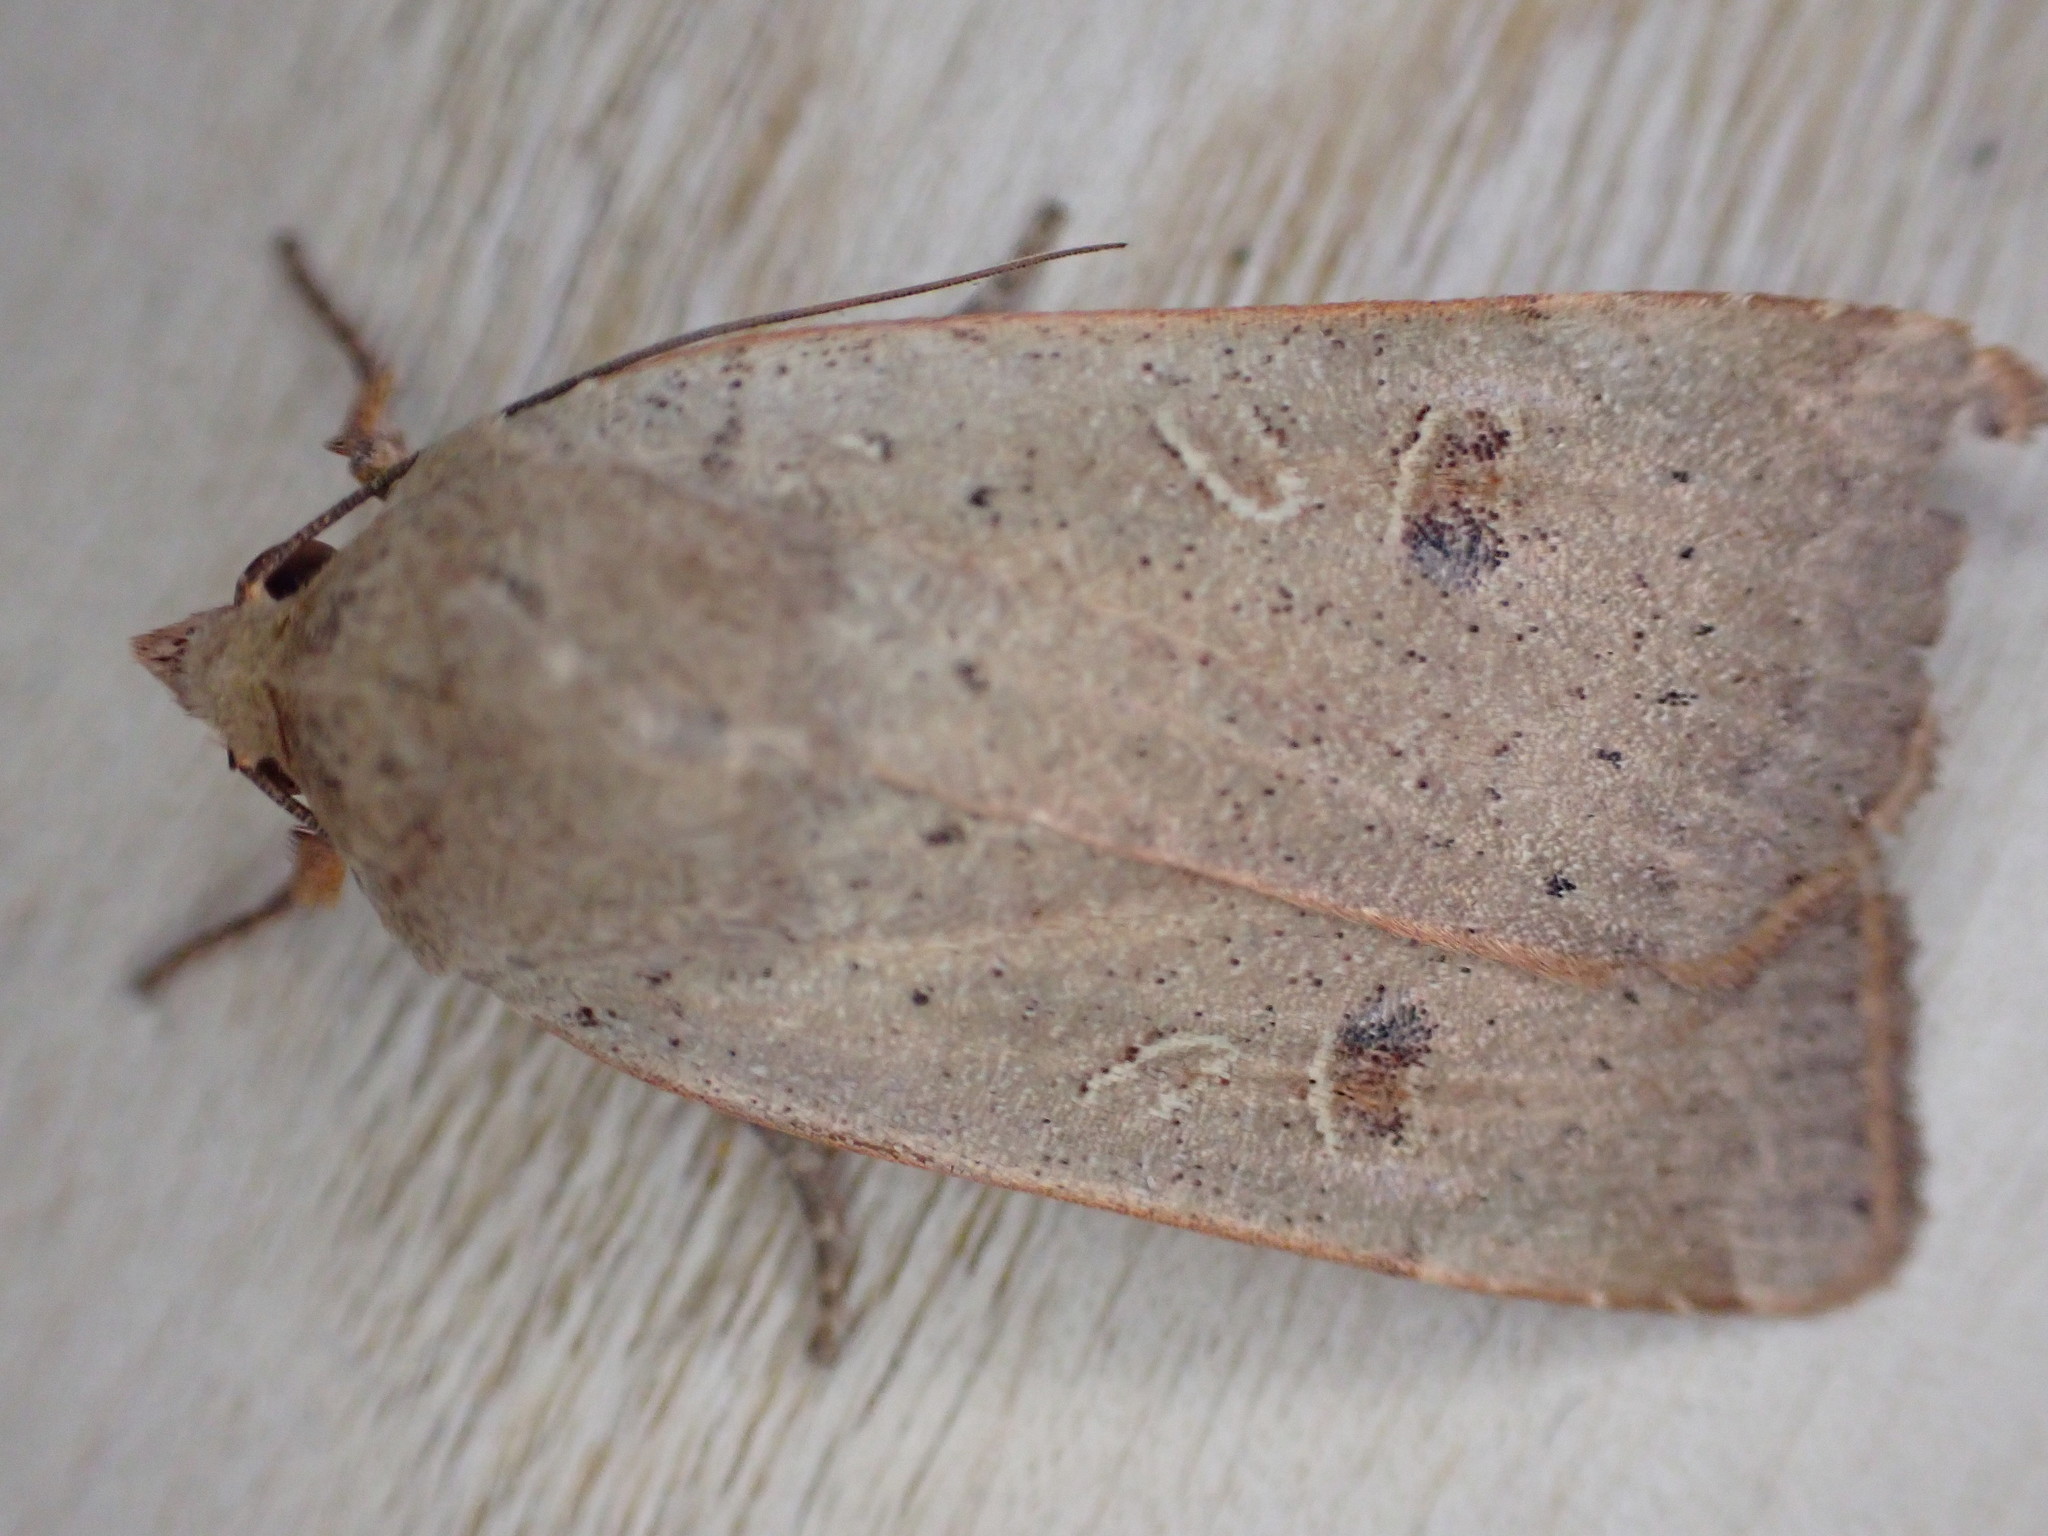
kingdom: Animalia
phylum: Arthropoda
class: Insecta
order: Lepidoptera
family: Noctuidae
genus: Noctua
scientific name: Noctua comes
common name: Lesser yellow underwing
